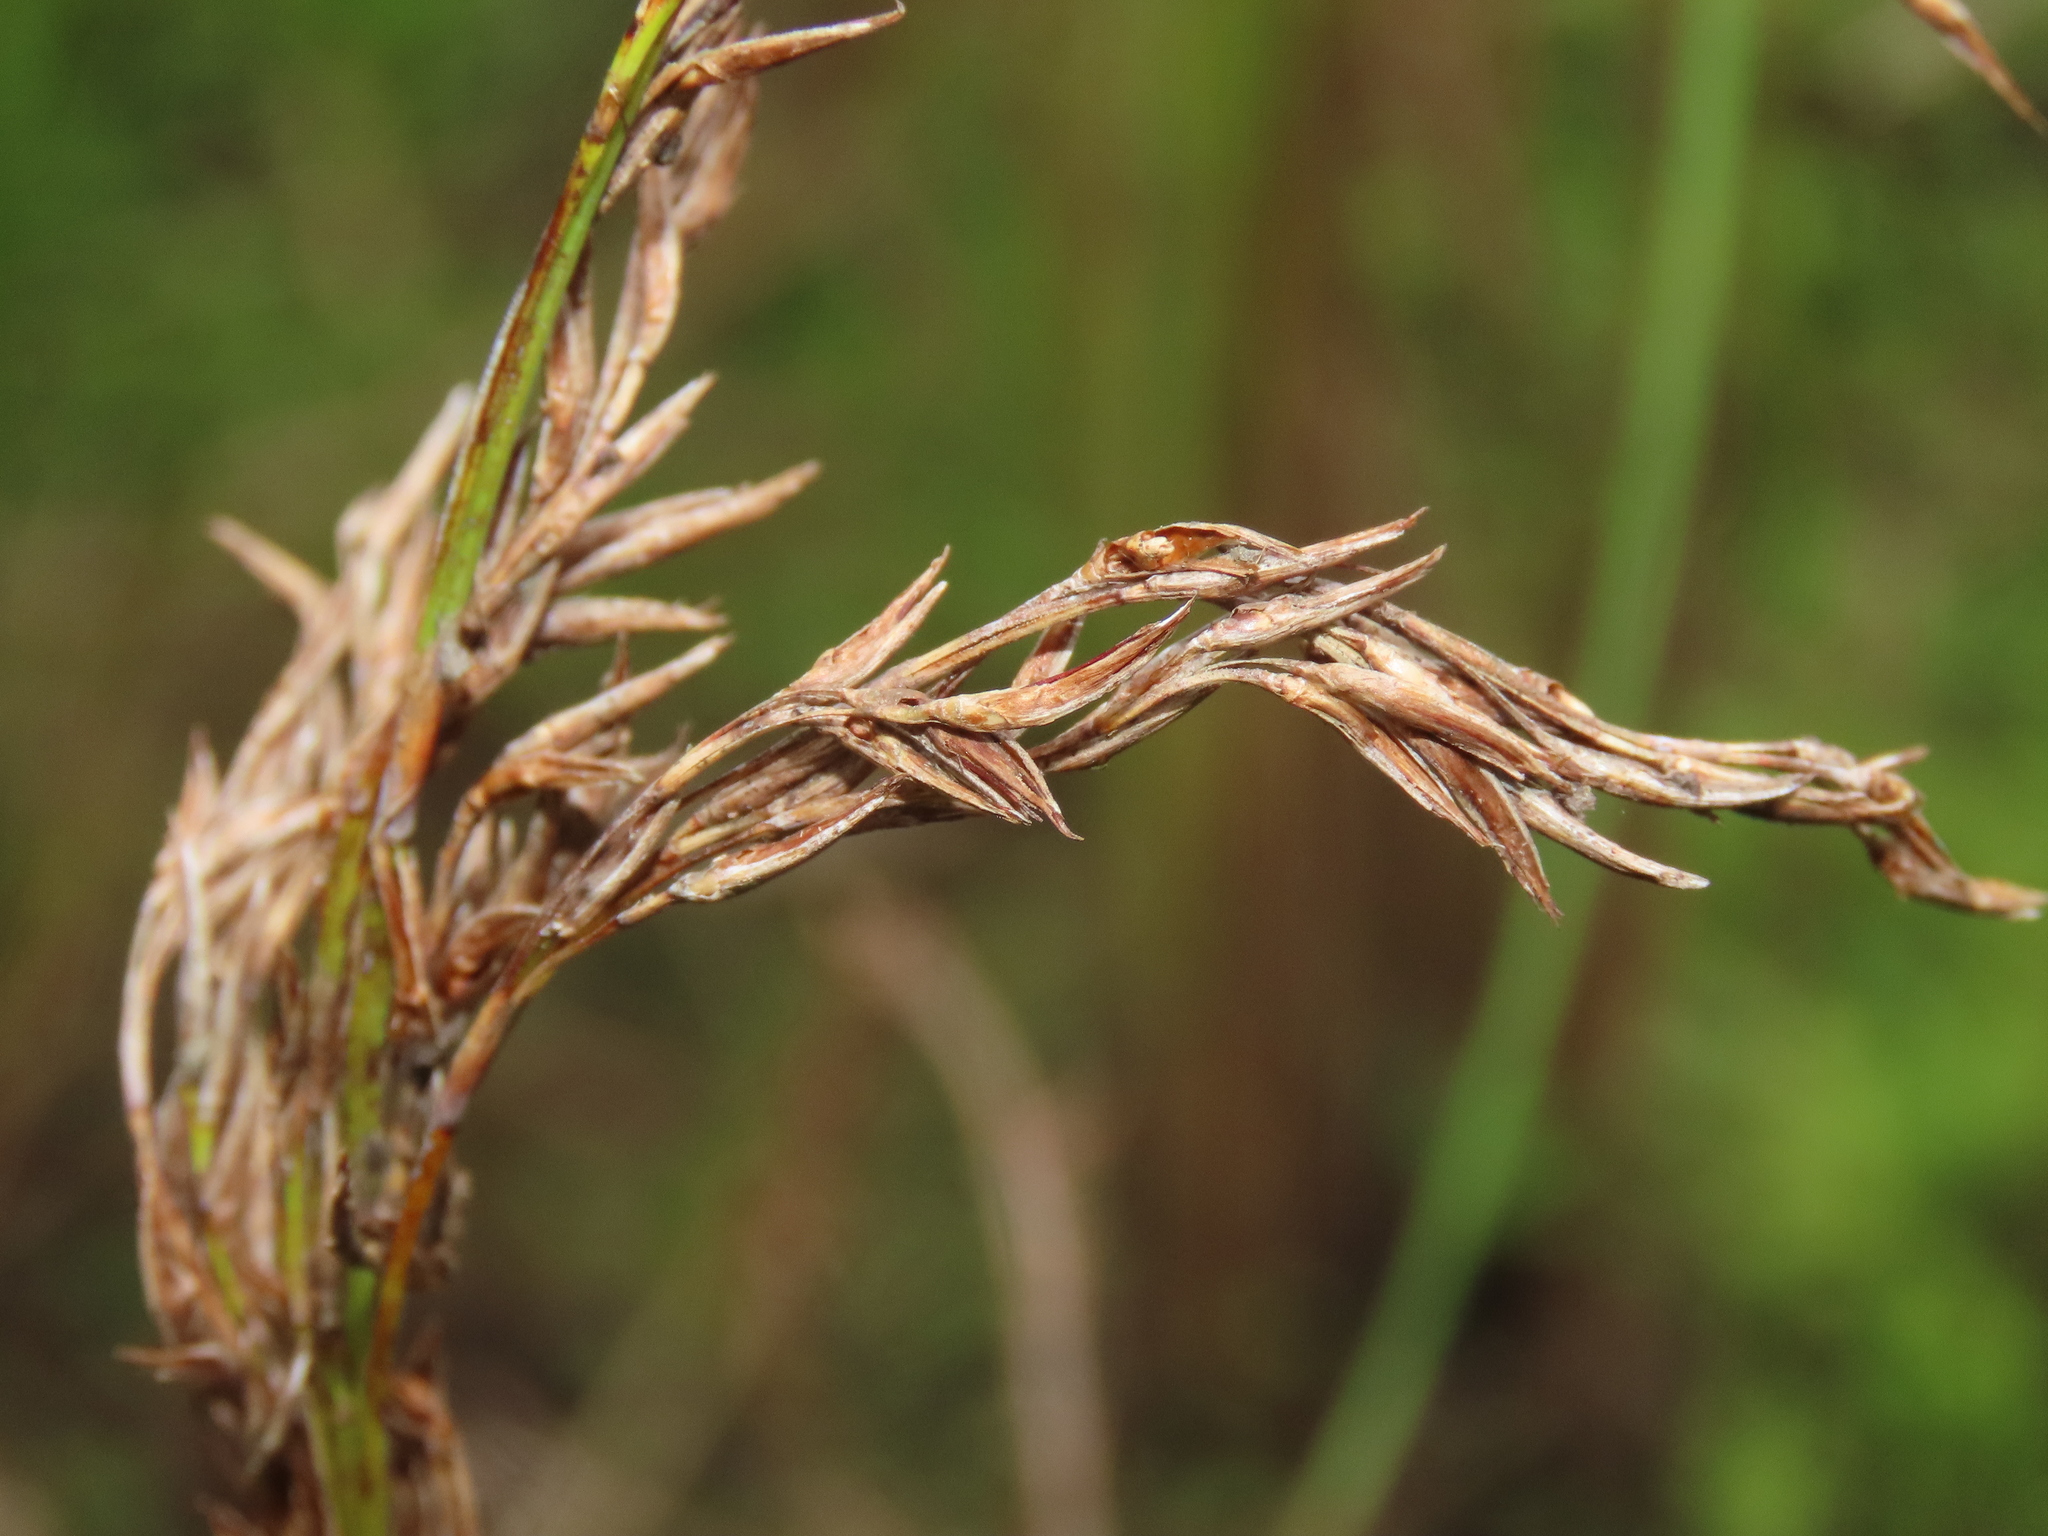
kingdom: Plantae
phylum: Tracheophyta
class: Liliopsida
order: Poales
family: Cyperaceae
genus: Schoenus
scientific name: Schoenus falcatus
